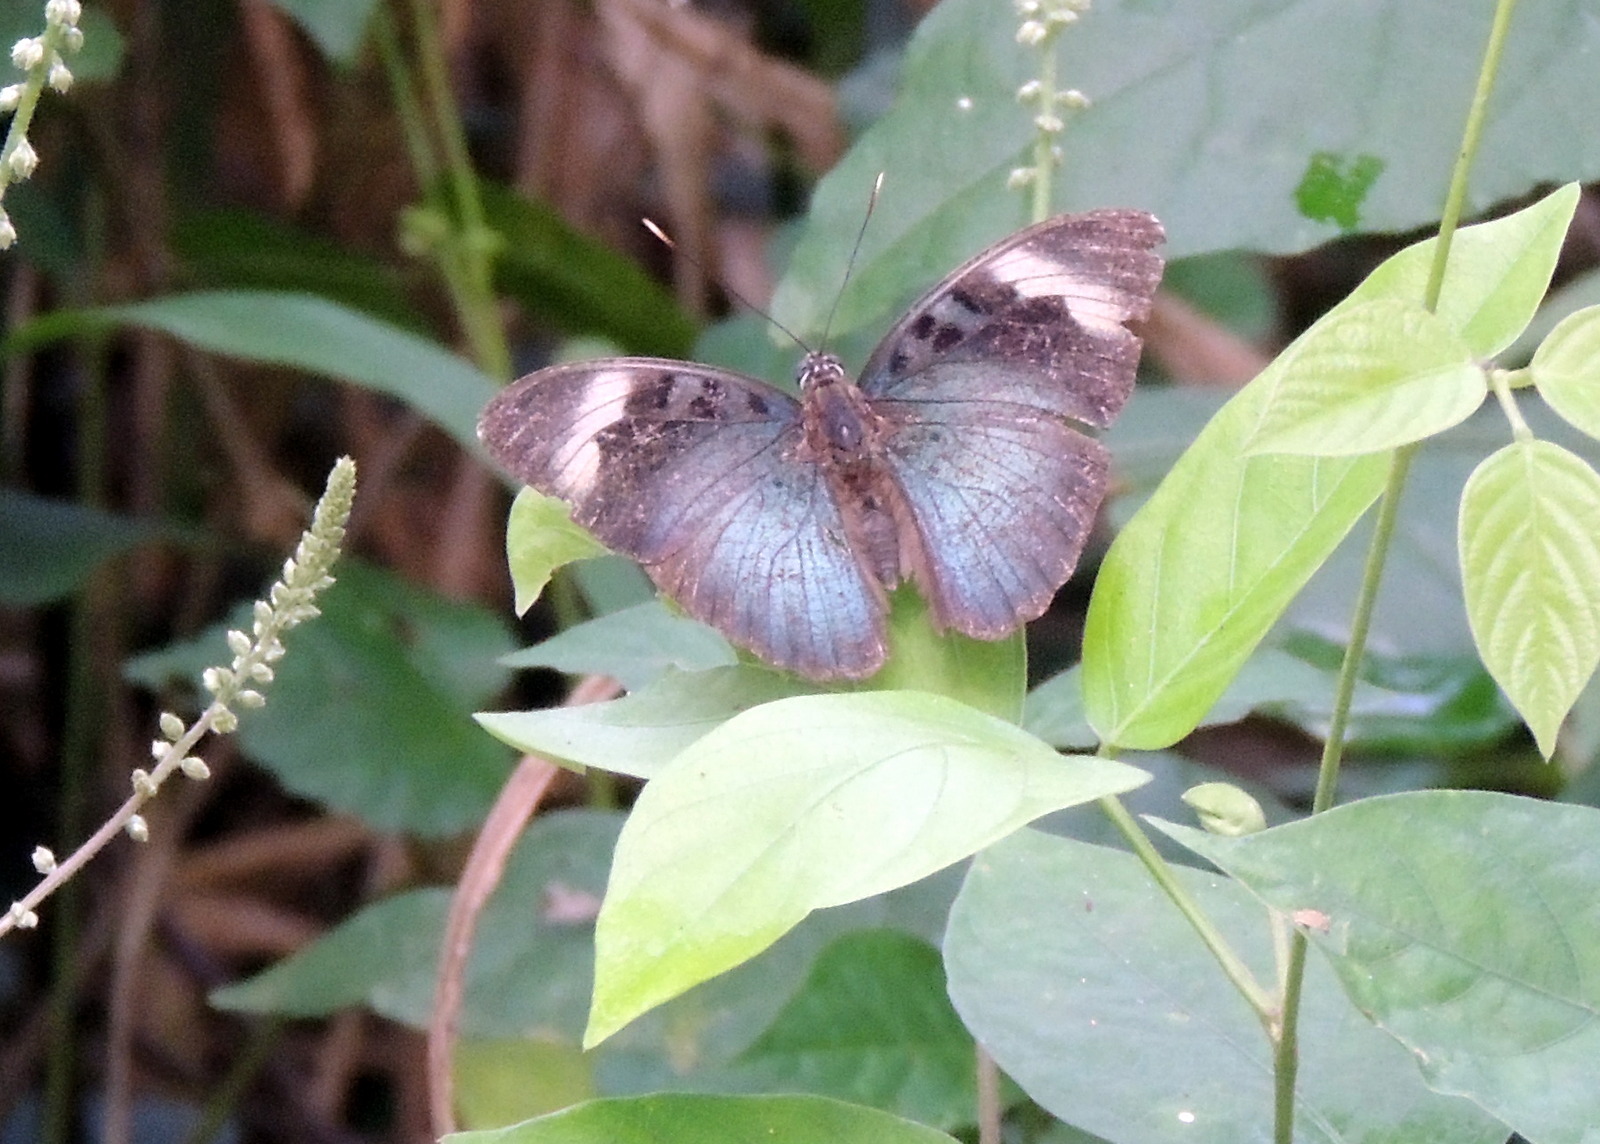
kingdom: Animalia
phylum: Arthropoda
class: Insecta
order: Lepidoptera
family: Nymphalidae
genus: Euphaedra
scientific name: Euphaedra medon
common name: Widespread forester
